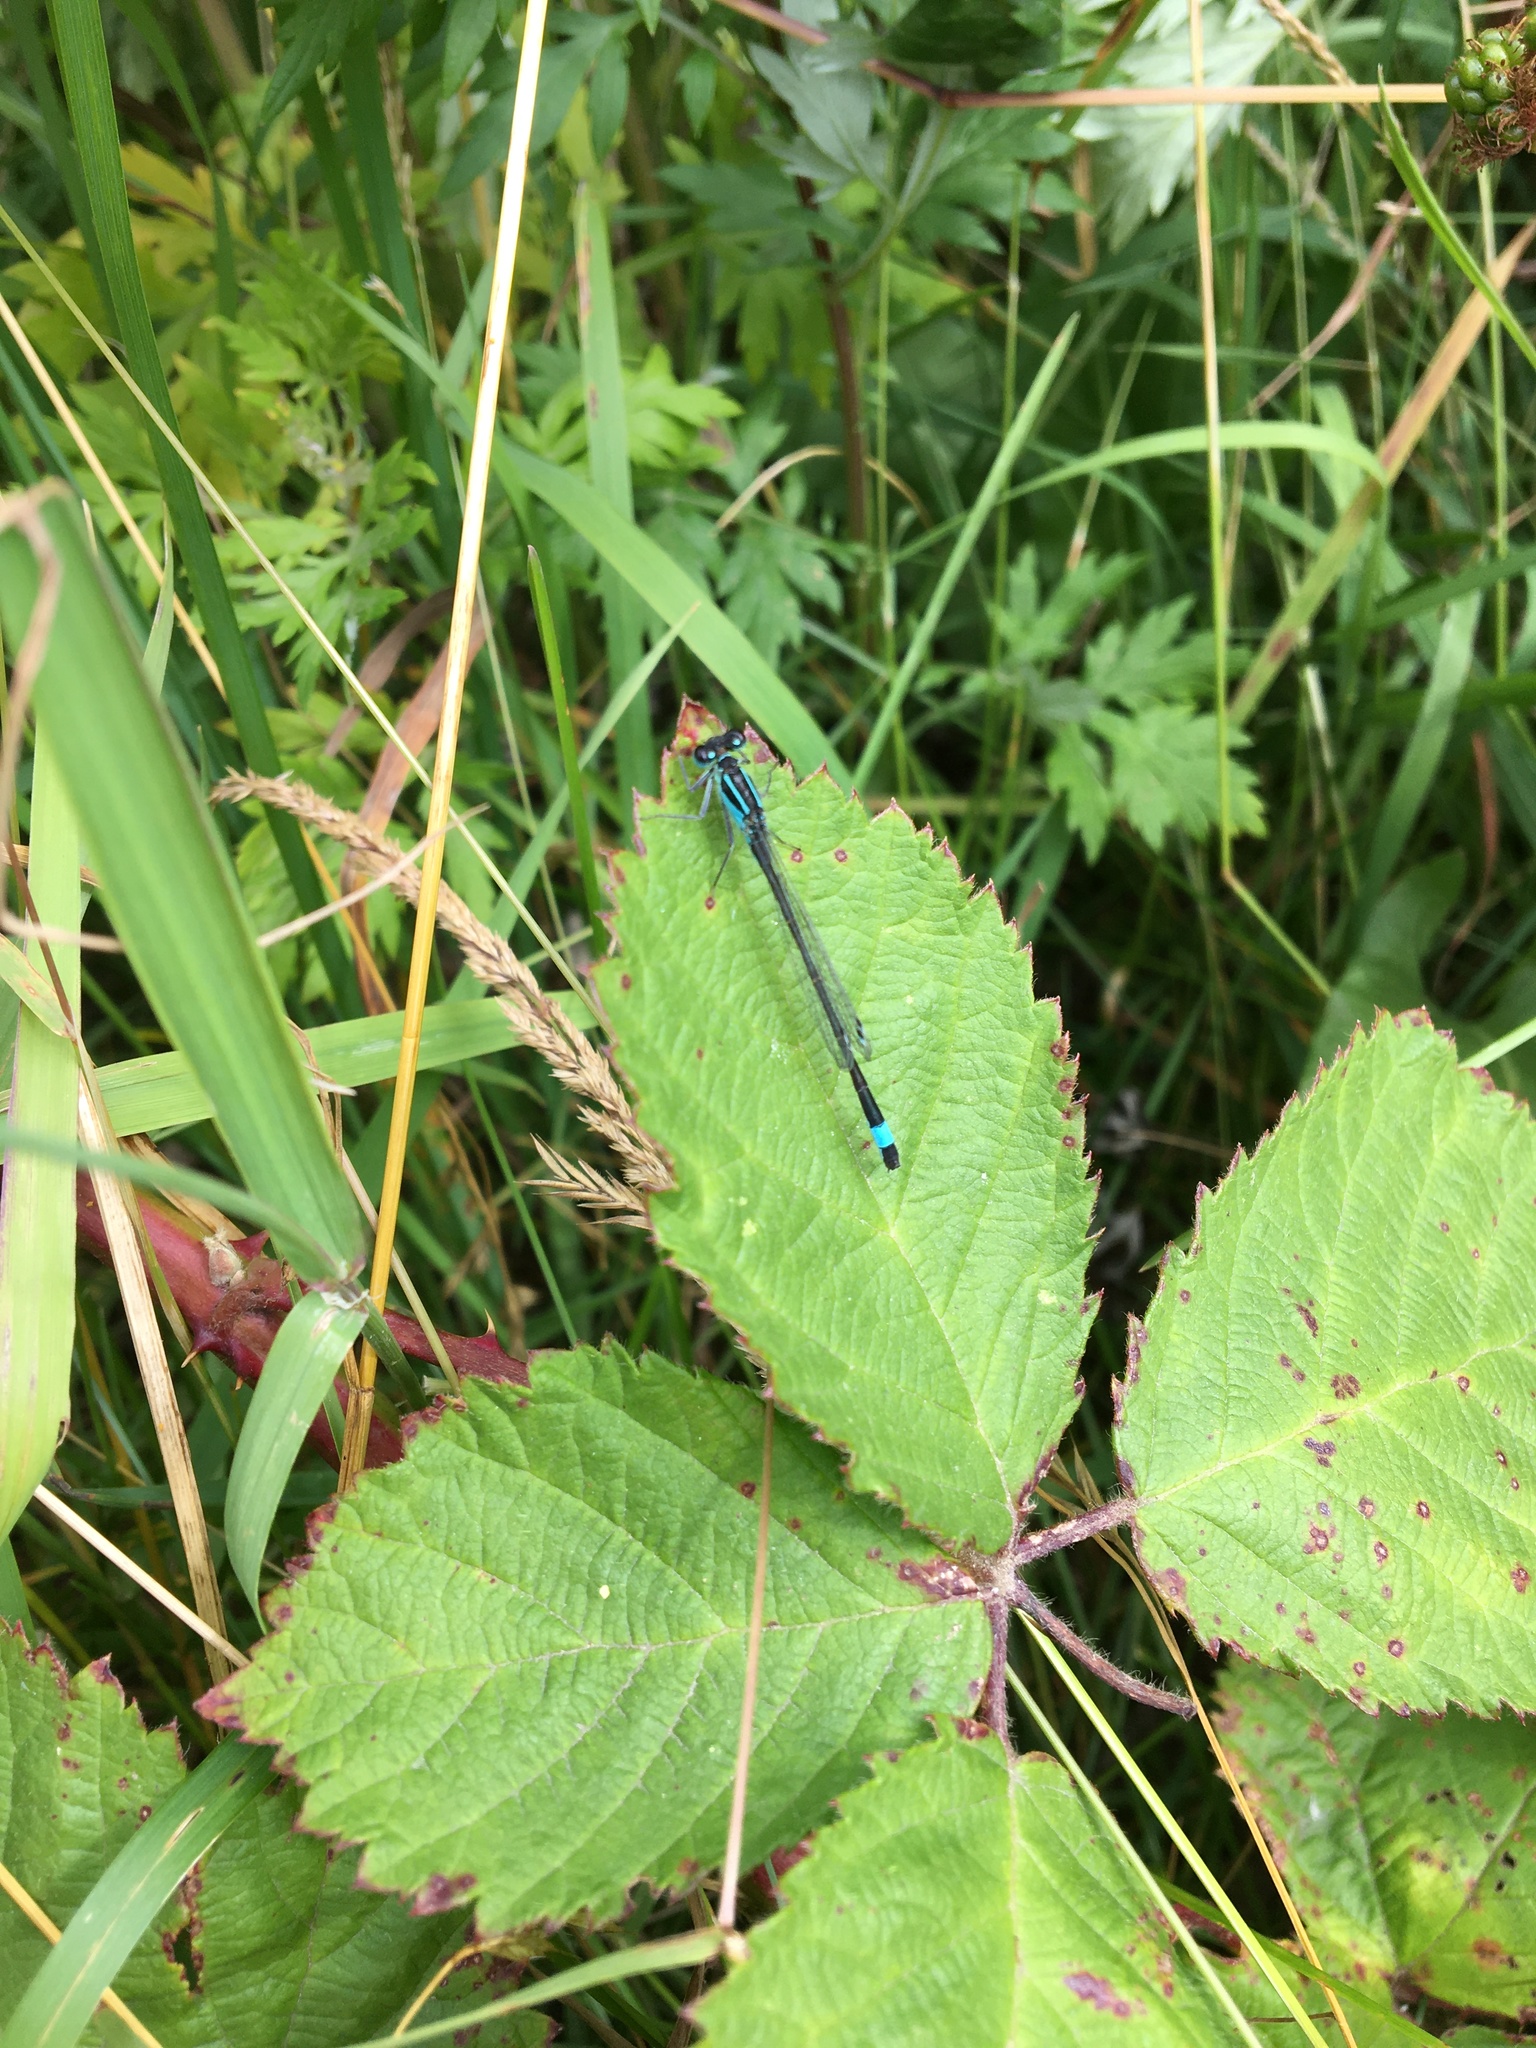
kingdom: Animalia
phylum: Arthropoda
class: Insecta
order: Odonata
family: Coenagrionidae
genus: Ischnura
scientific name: Ischnura elegans
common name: Blue-tailed damselfly
